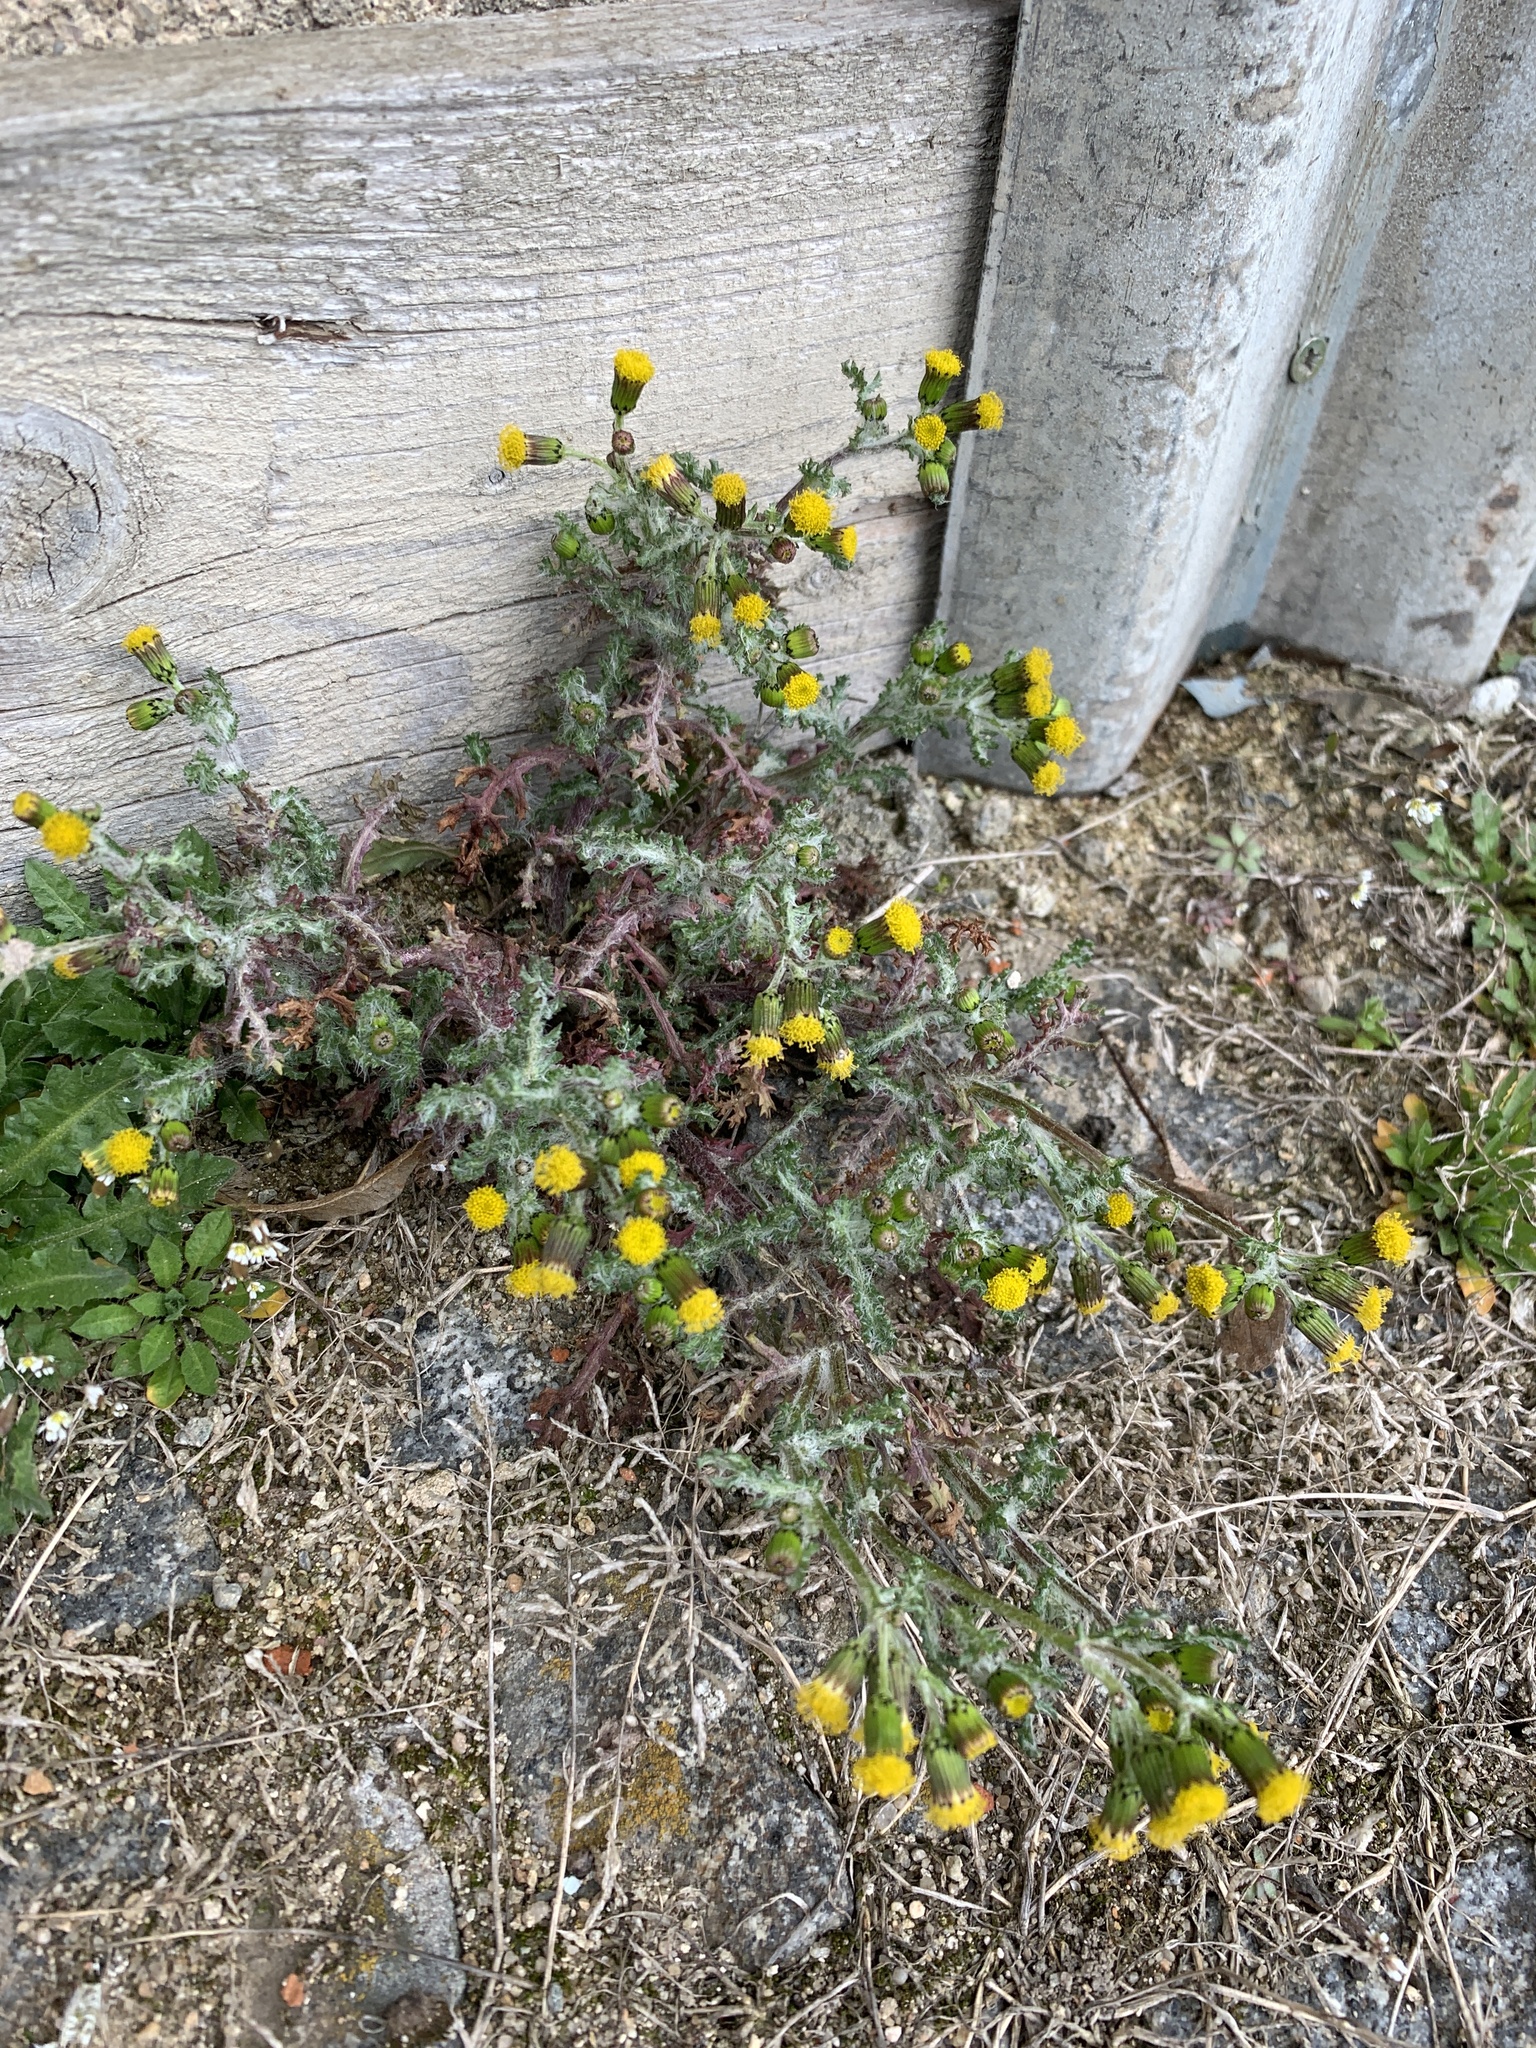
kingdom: Plantae
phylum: Tracheophyta
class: Magnoliopsida
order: Asterales
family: Asteraceae
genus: Senecio
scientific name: Senecio vulgaris
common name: Old-man-in-the-spring
